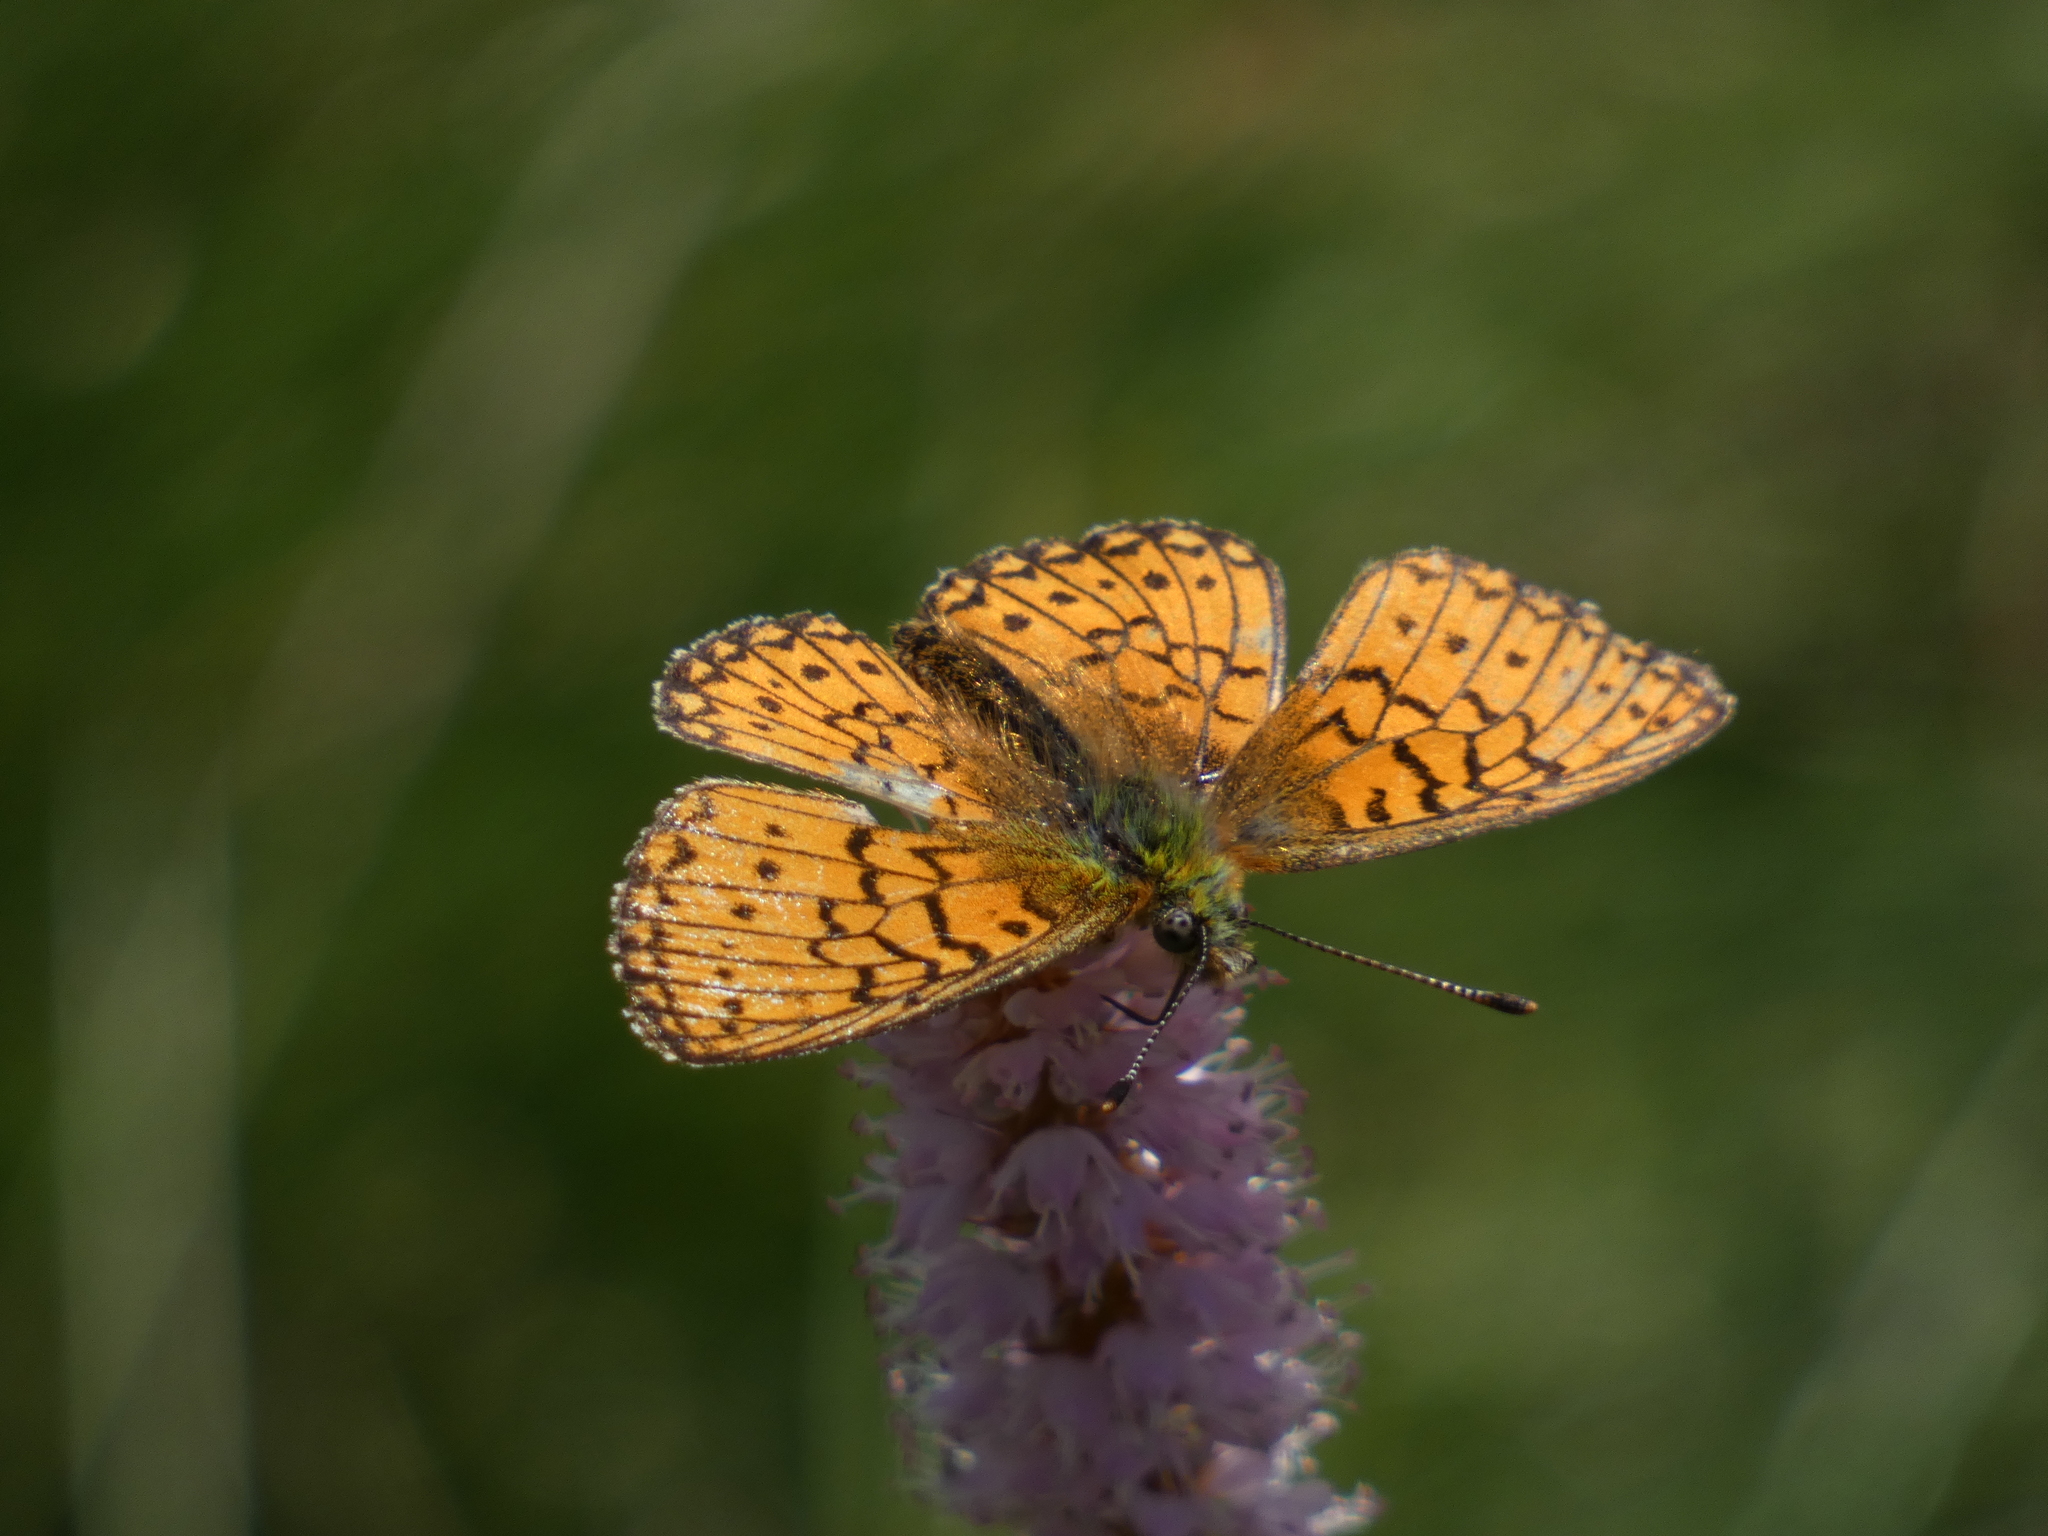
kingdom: Animalia
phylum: Arthropoda
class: Insecta
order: Lepidoptera
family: Nymphalidae
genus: Boloria
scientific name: Boloria eunomia
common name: Bog fritillary
